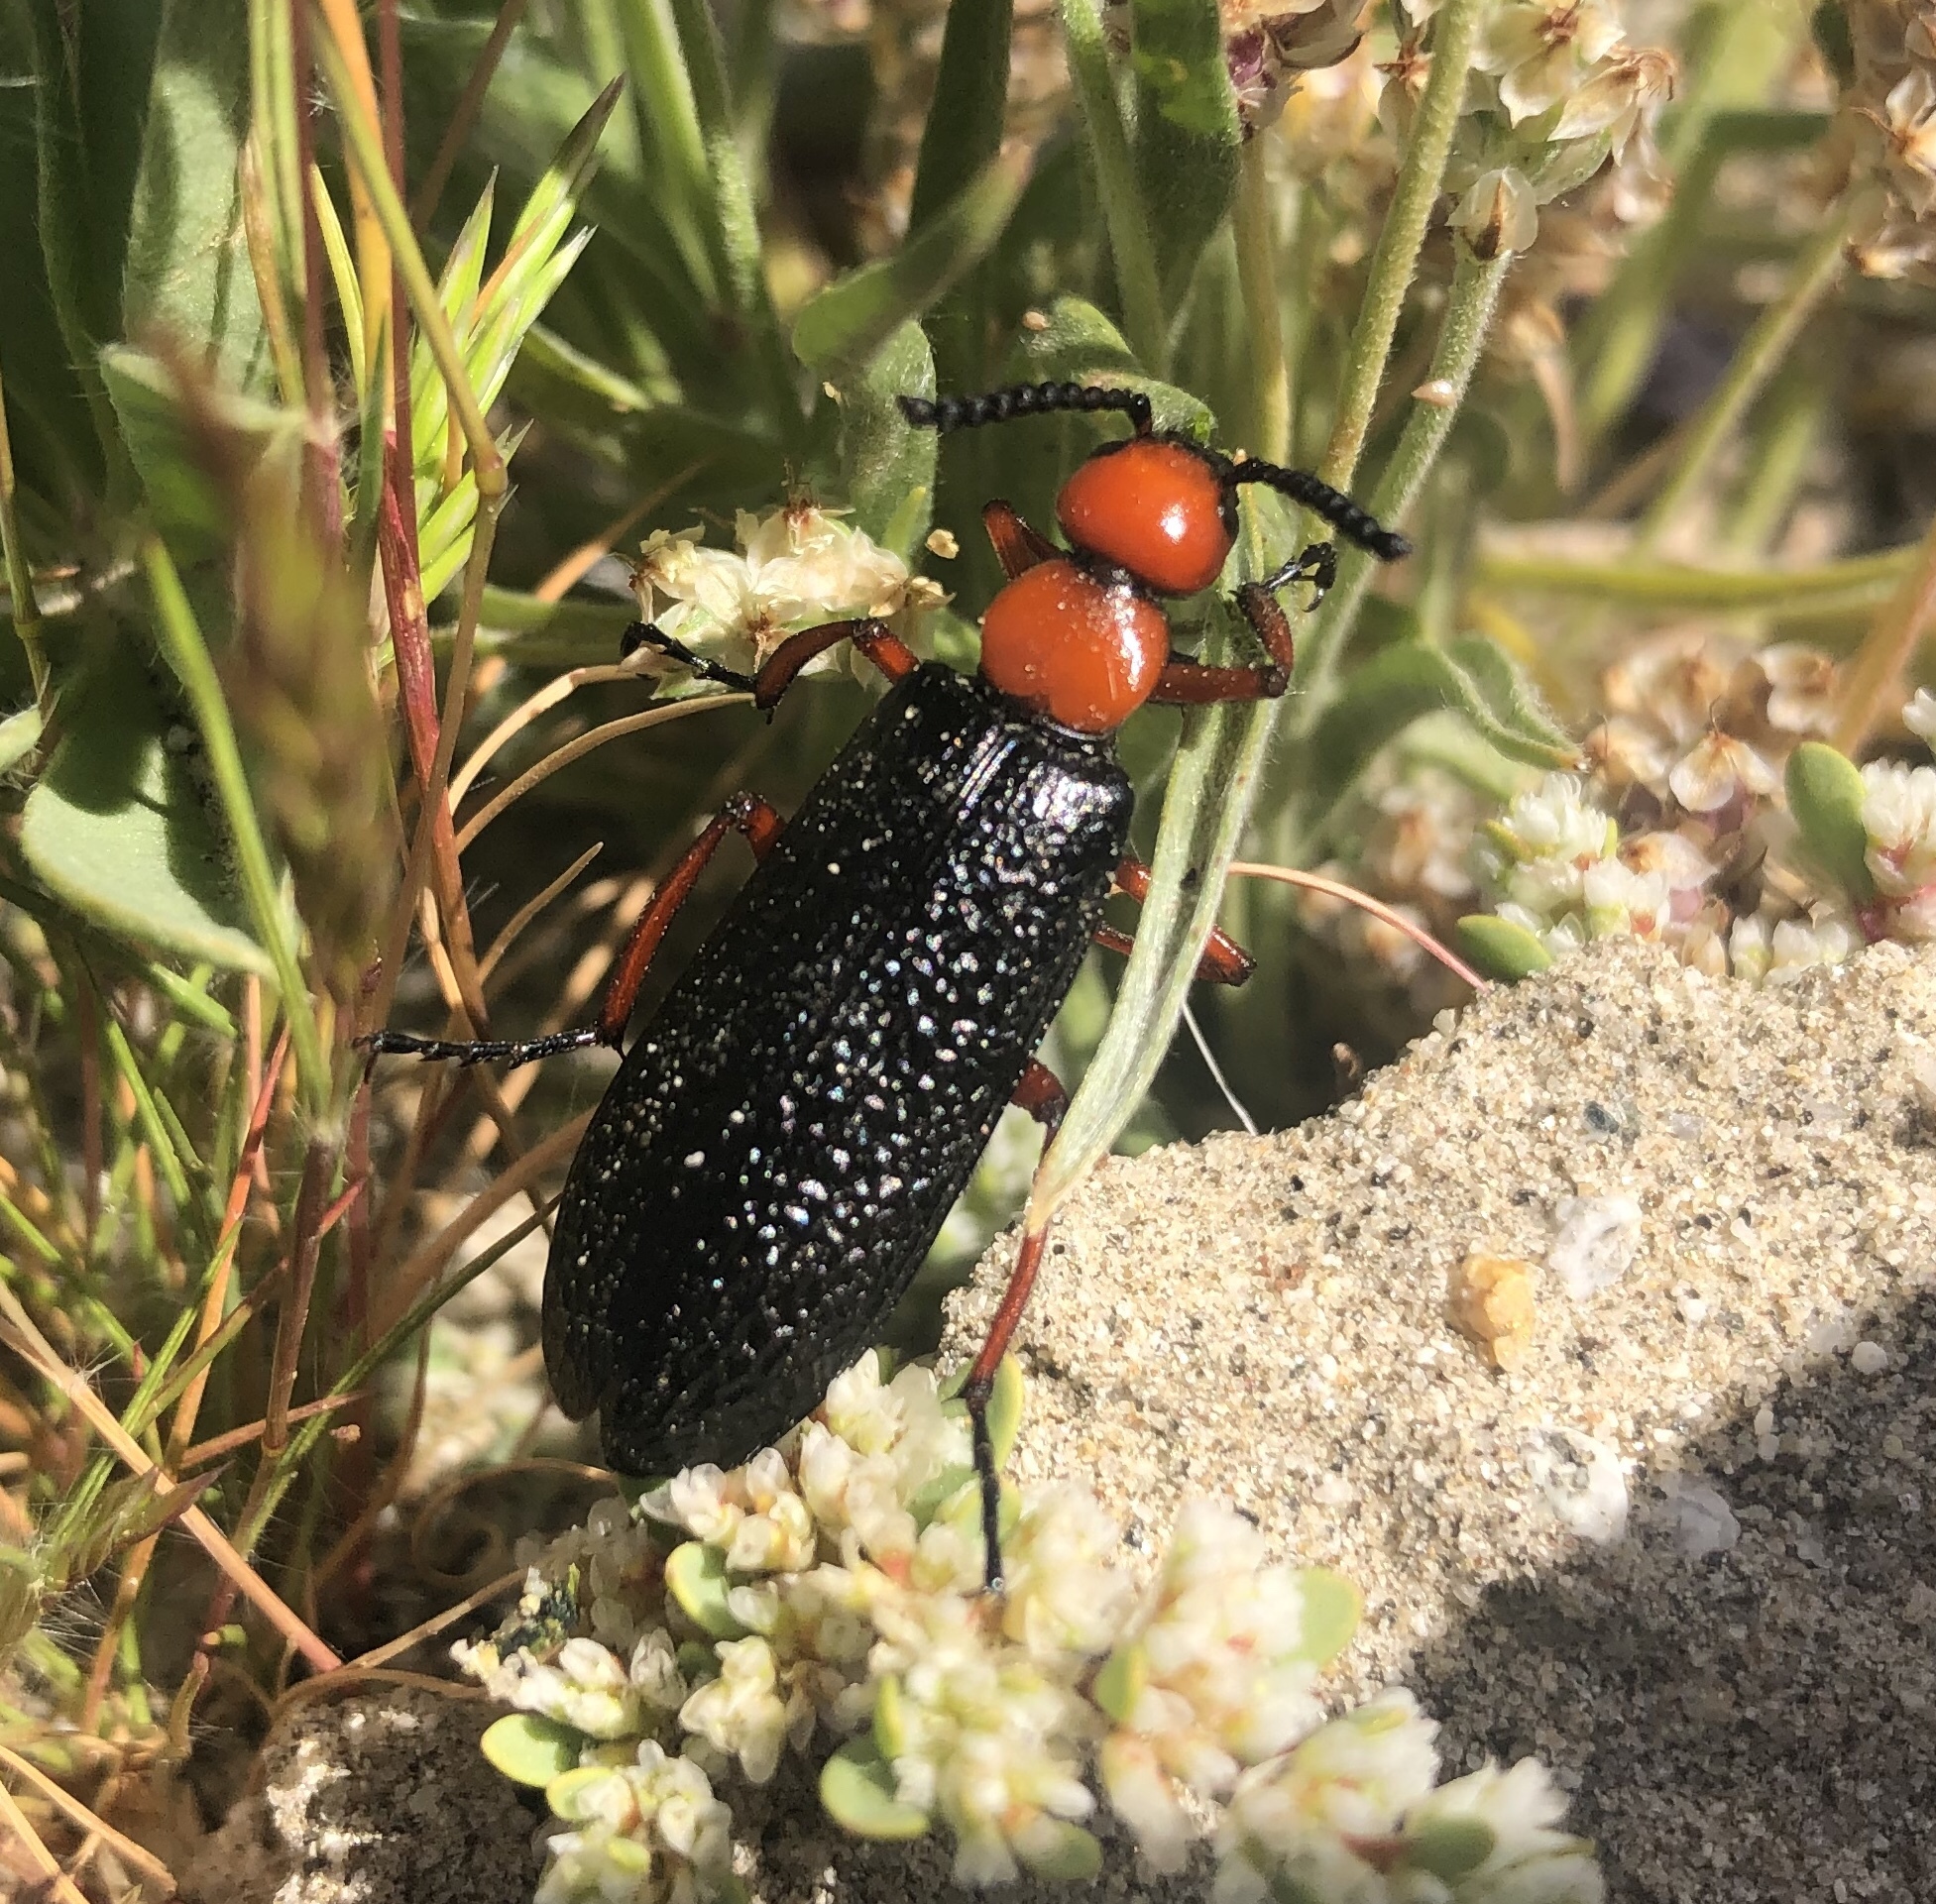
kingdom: Animalia
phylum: Arthropoda
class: Insecta
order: Coleoptera
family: Meloidae
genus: Lytta
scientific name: Lytta magister
